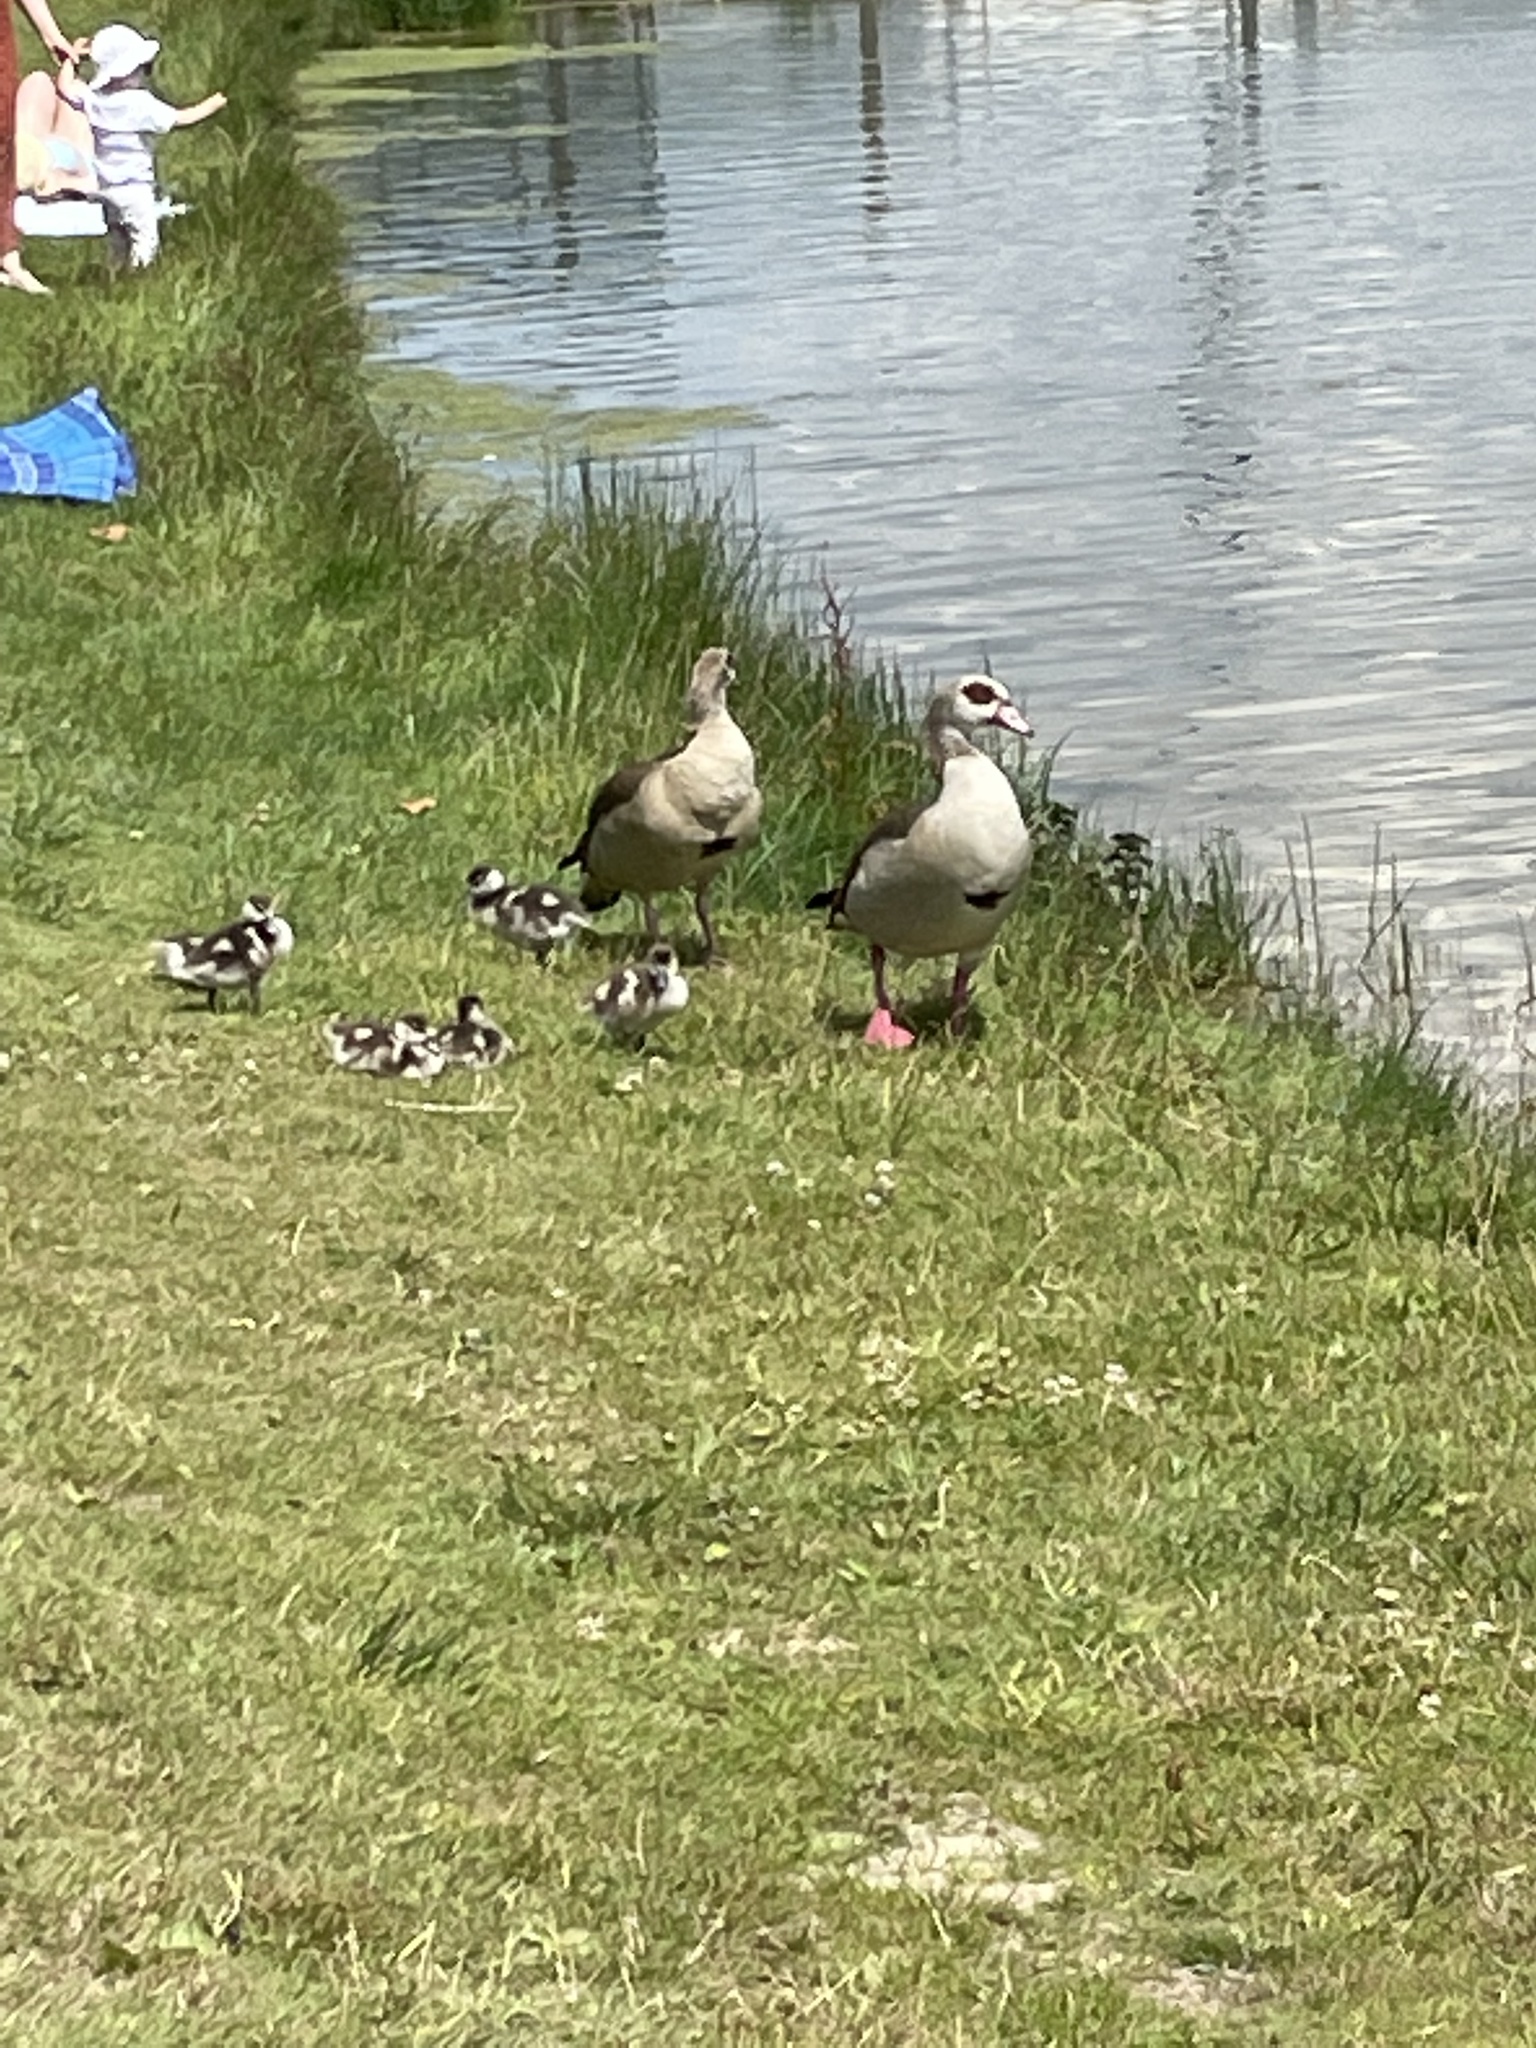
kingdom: Animalia
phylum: Chordata
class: Aves
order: Anseriformes
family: Anatidae
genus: Alopochen
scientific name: Alopochen aegyptiaca
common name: Egyptian goose
